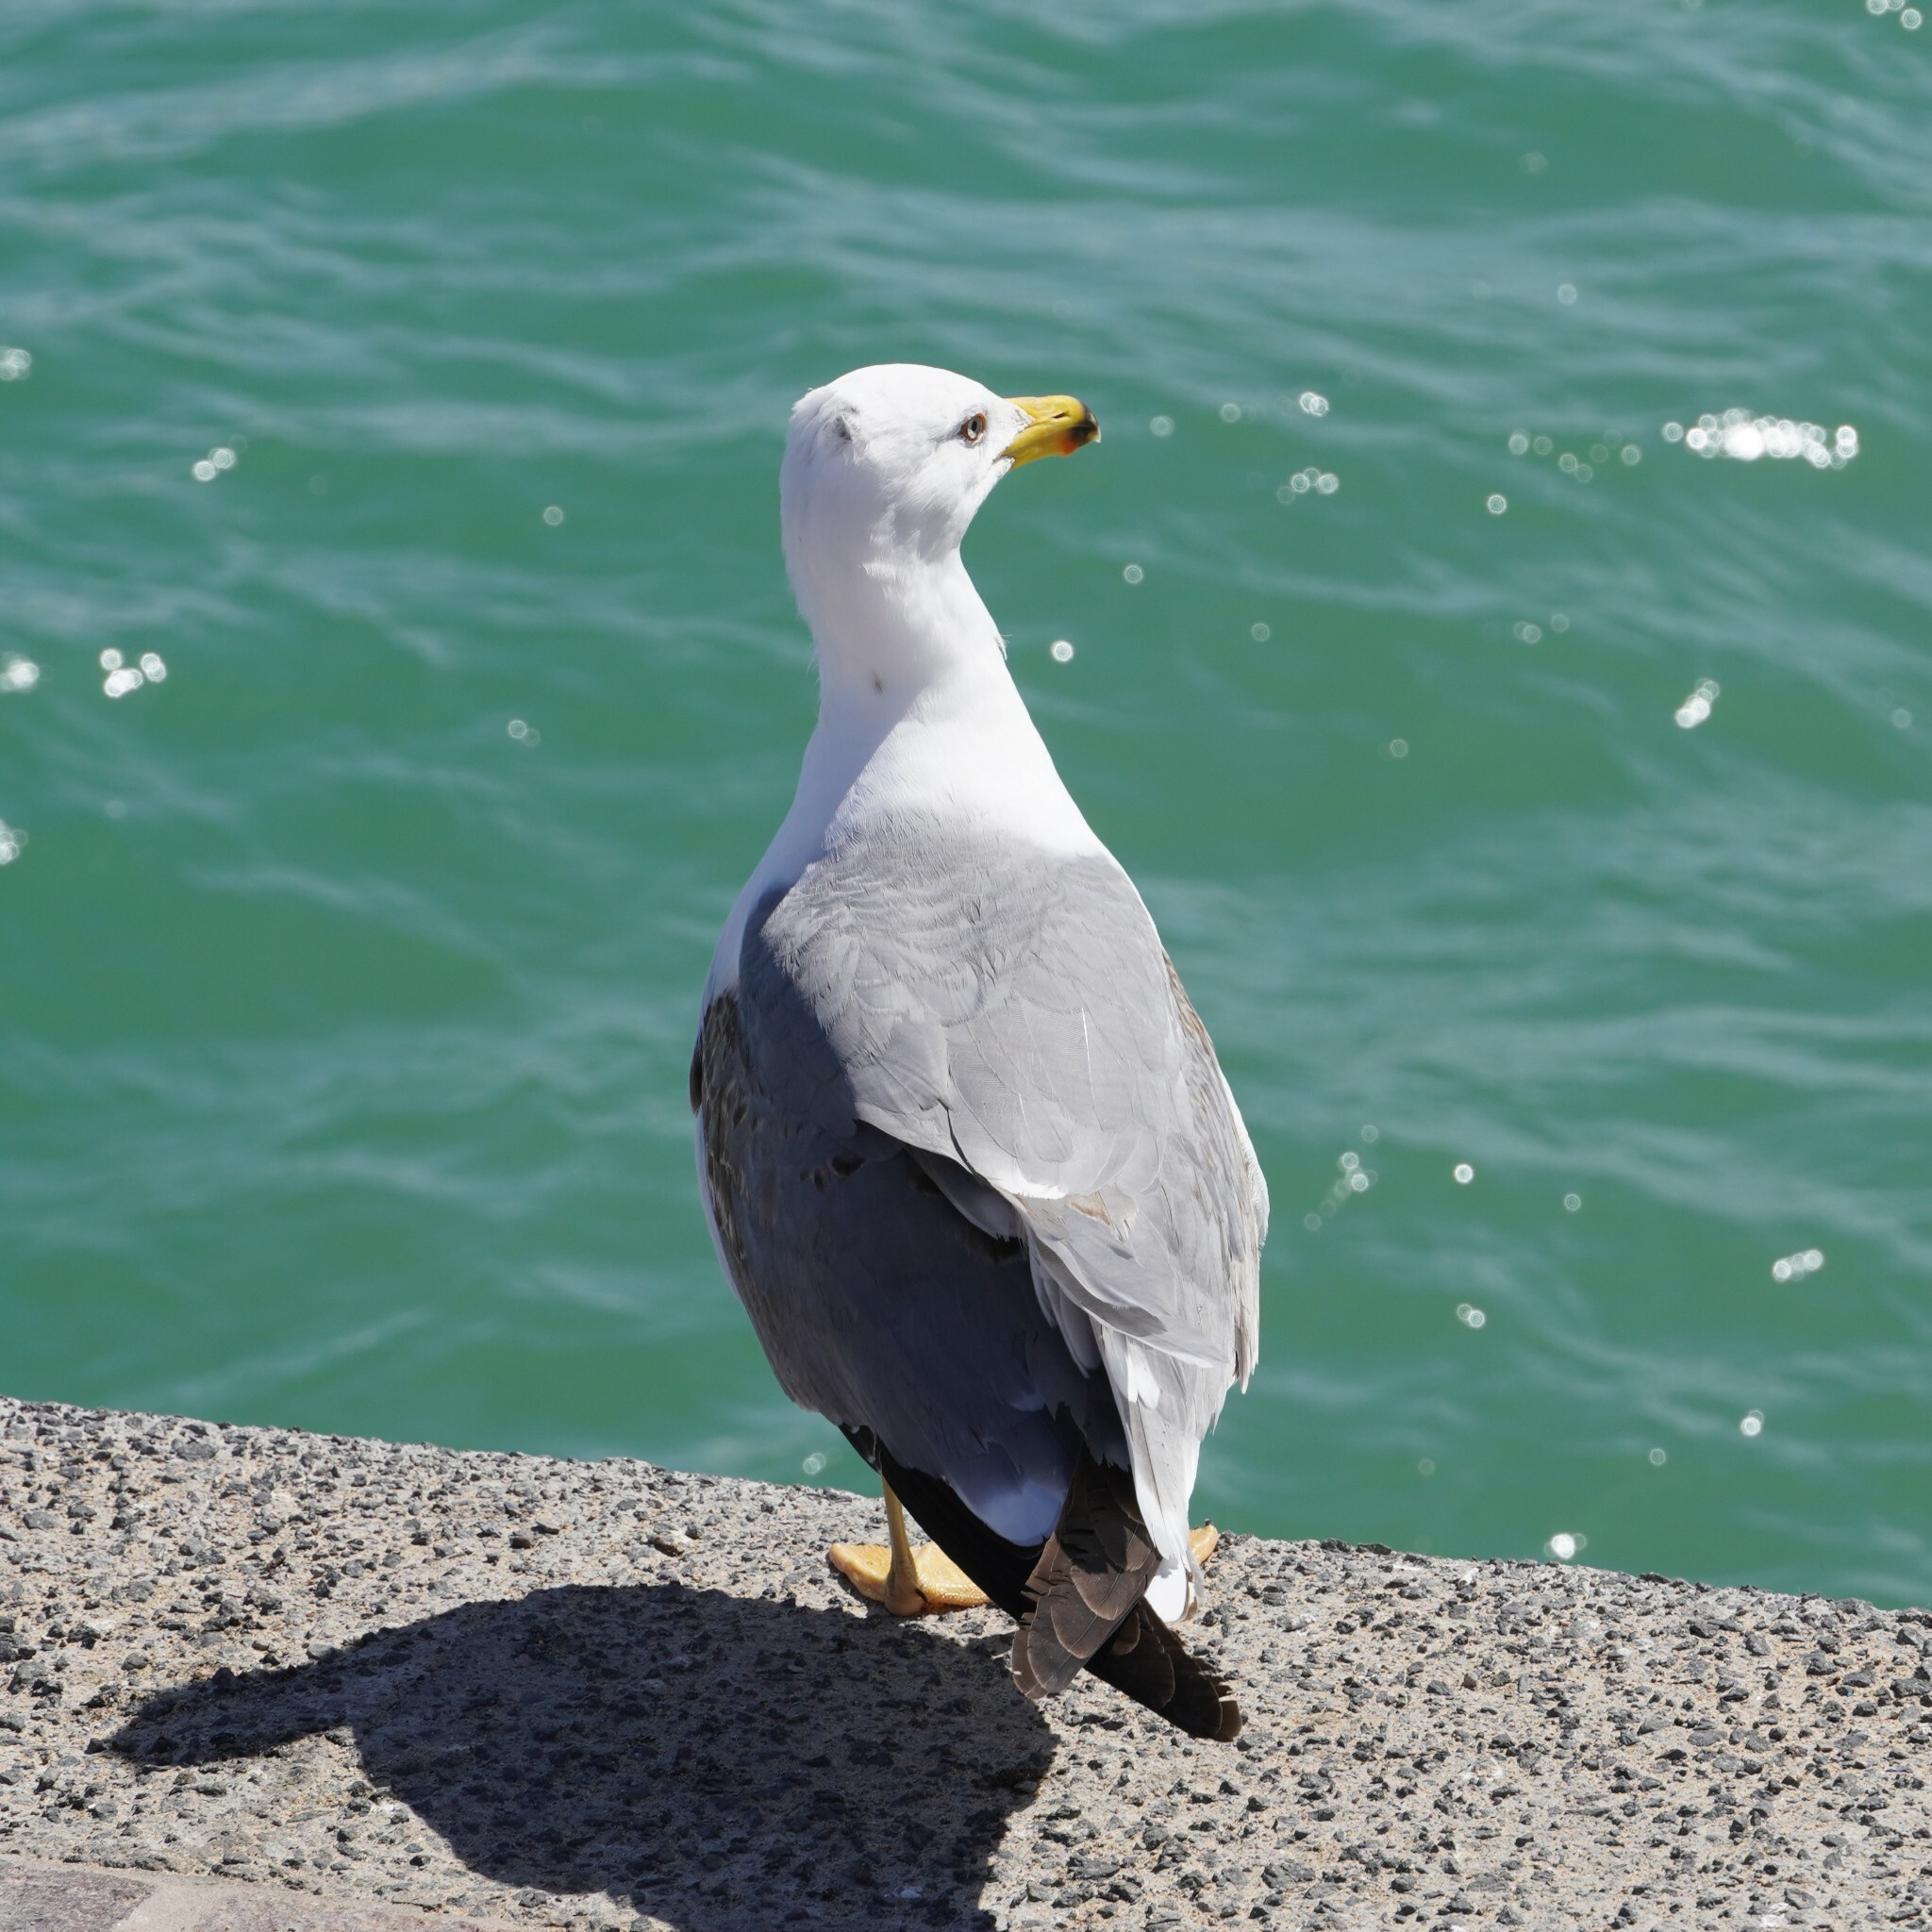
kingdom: Animalia
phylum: Chordata
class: Aves
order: Charadriiformes
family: Laridae
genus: Larus
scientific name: Larus michahellis
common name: Yellow-legged gull
